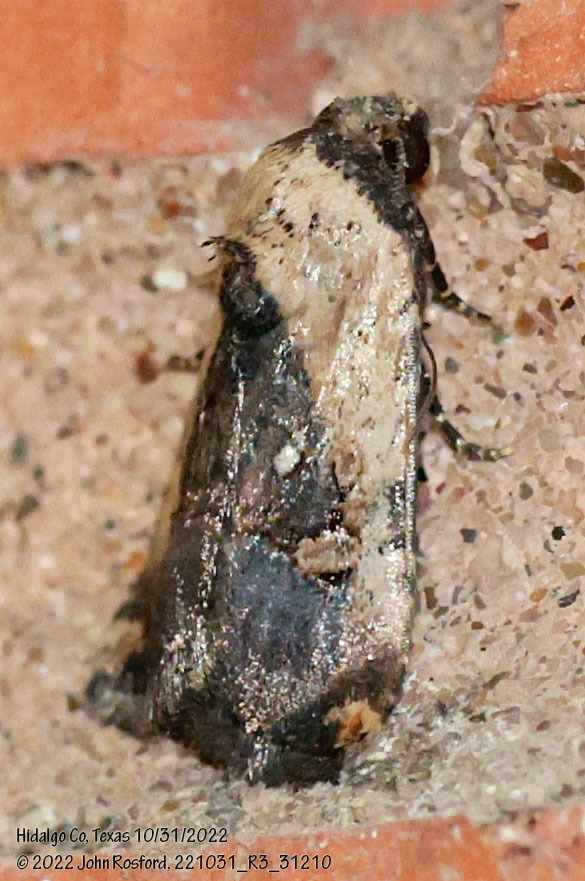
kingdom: Animalia
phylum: Arthropoda
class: Insecta
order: Lepidoptera
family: Noctuidae
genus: Elaphria
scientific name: Elaphria agrotina
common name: Agrotina midget
